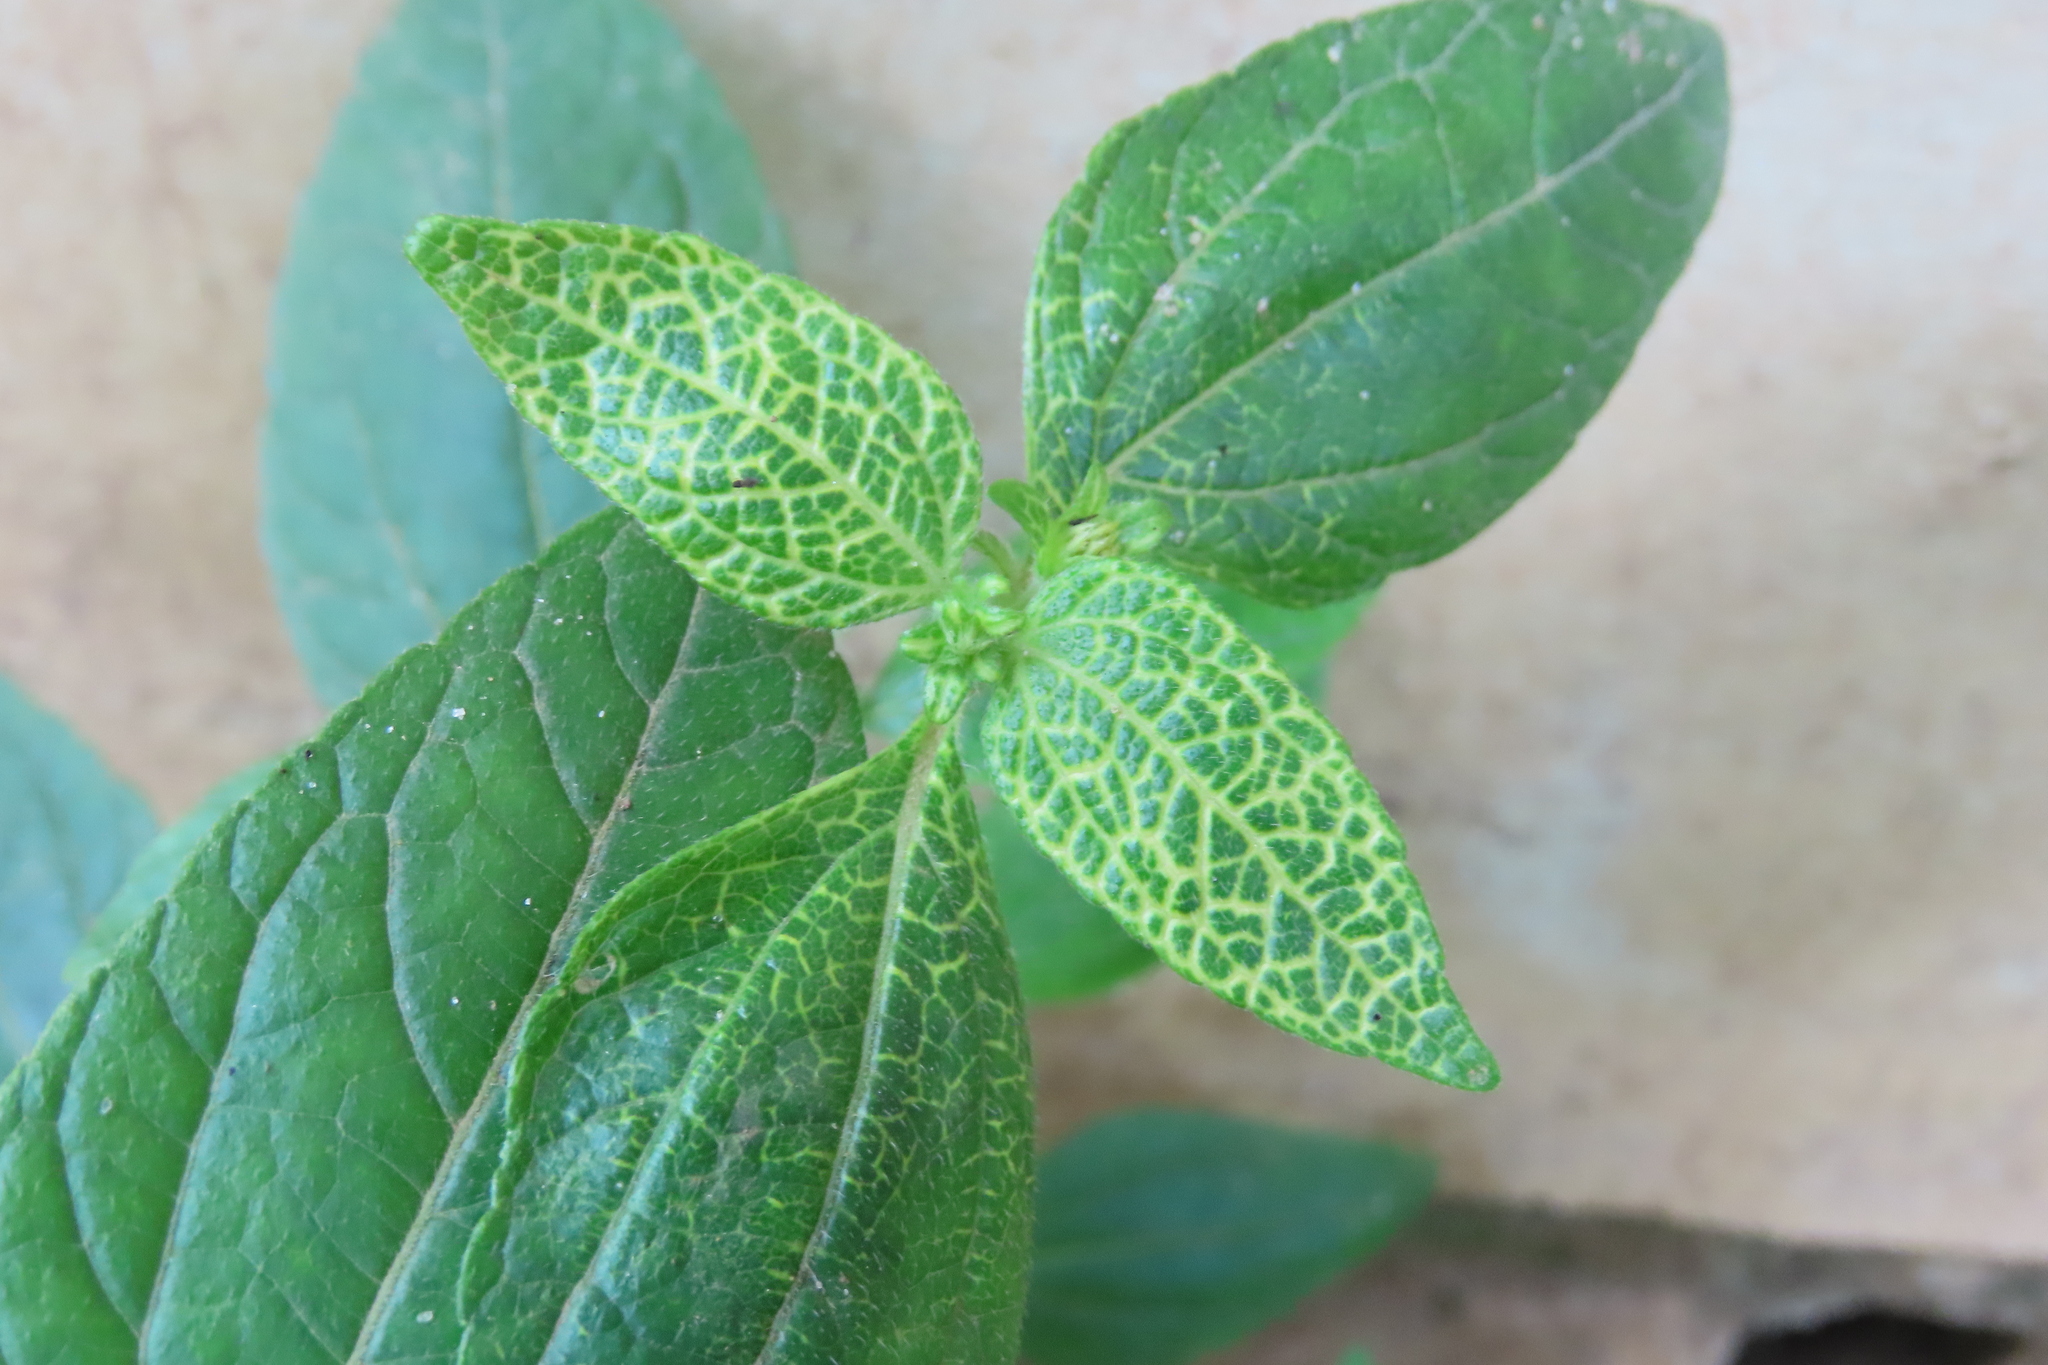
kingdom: Viruses
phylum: Cressdnaviricota
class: Repensiviricetes
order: Geplafuvirales
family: Geminiviridae
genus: Begomovirus
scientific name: Begomovirus Synedrella yellow vein clearing virus
